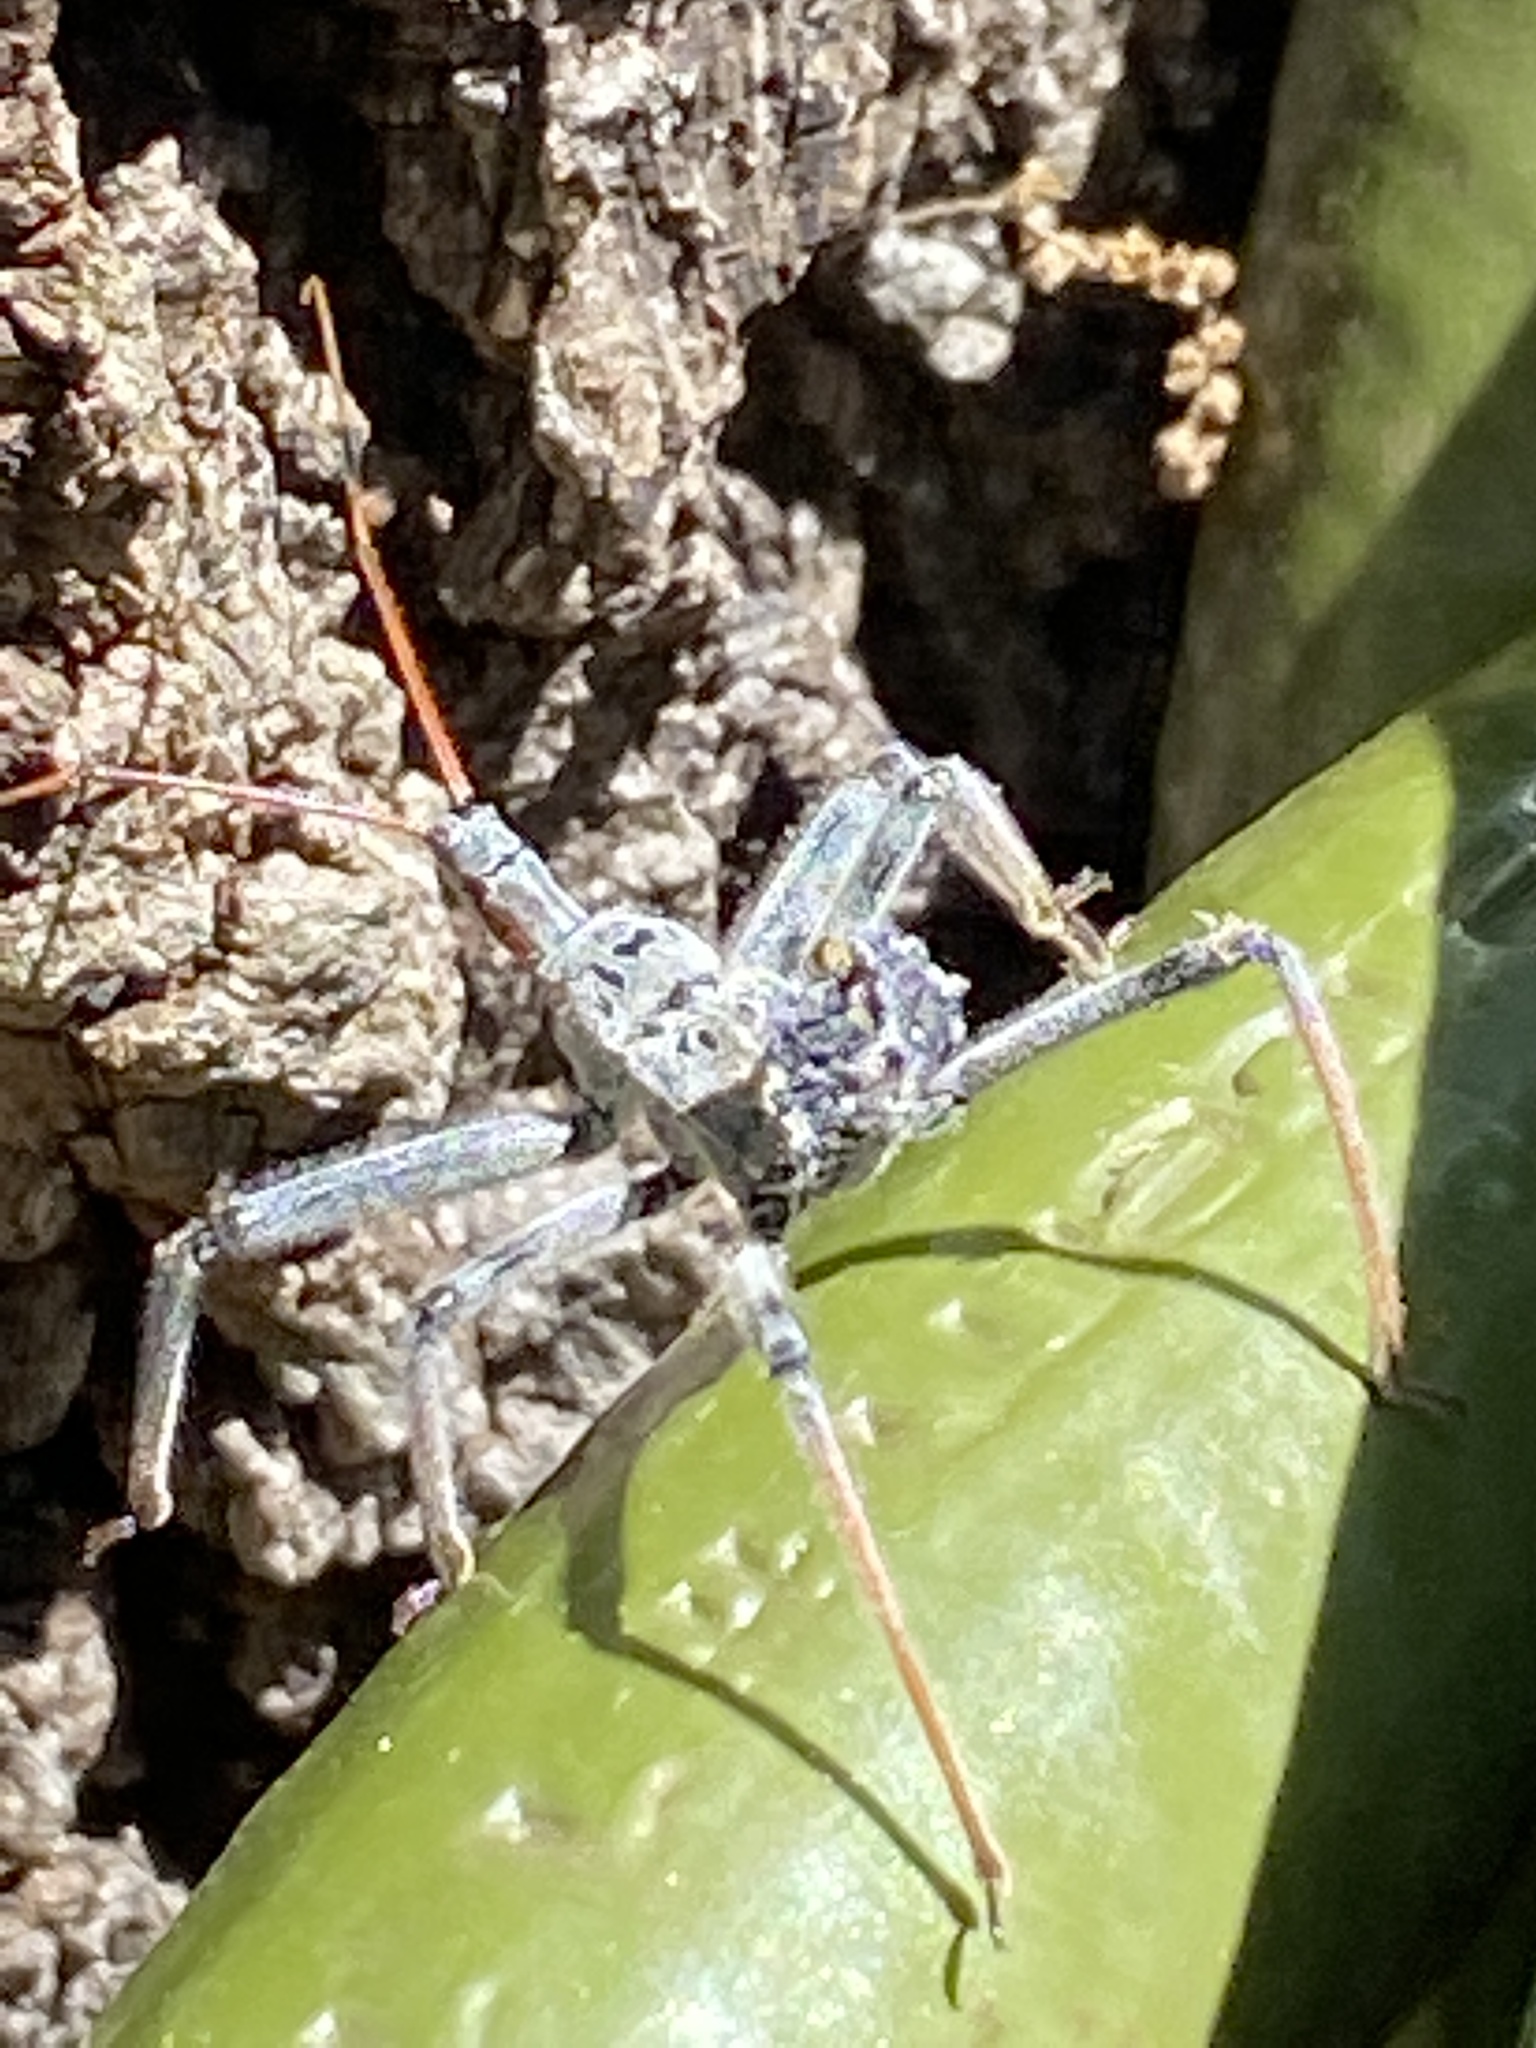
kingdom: Animalia
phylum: Arthropoda
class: Insecta
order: Hemiptera
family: Reduviidae
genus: Arilus
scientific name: Arilus cristatus
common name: North american wheel bug
